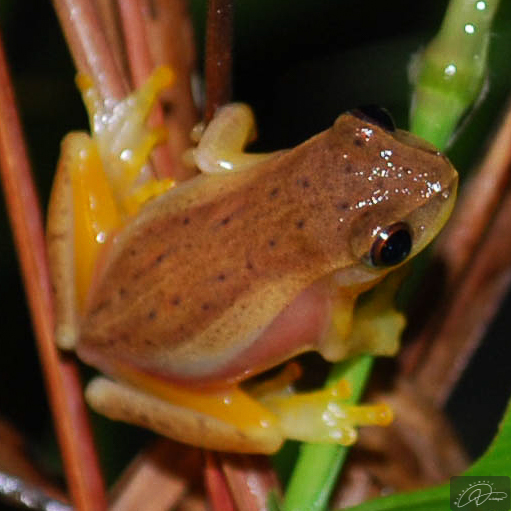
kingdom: Animalia
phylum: Chordata
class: Amphibia
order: Anura
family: Hylidae
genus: Dendropsophus
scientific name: Dendropsophus nanus
